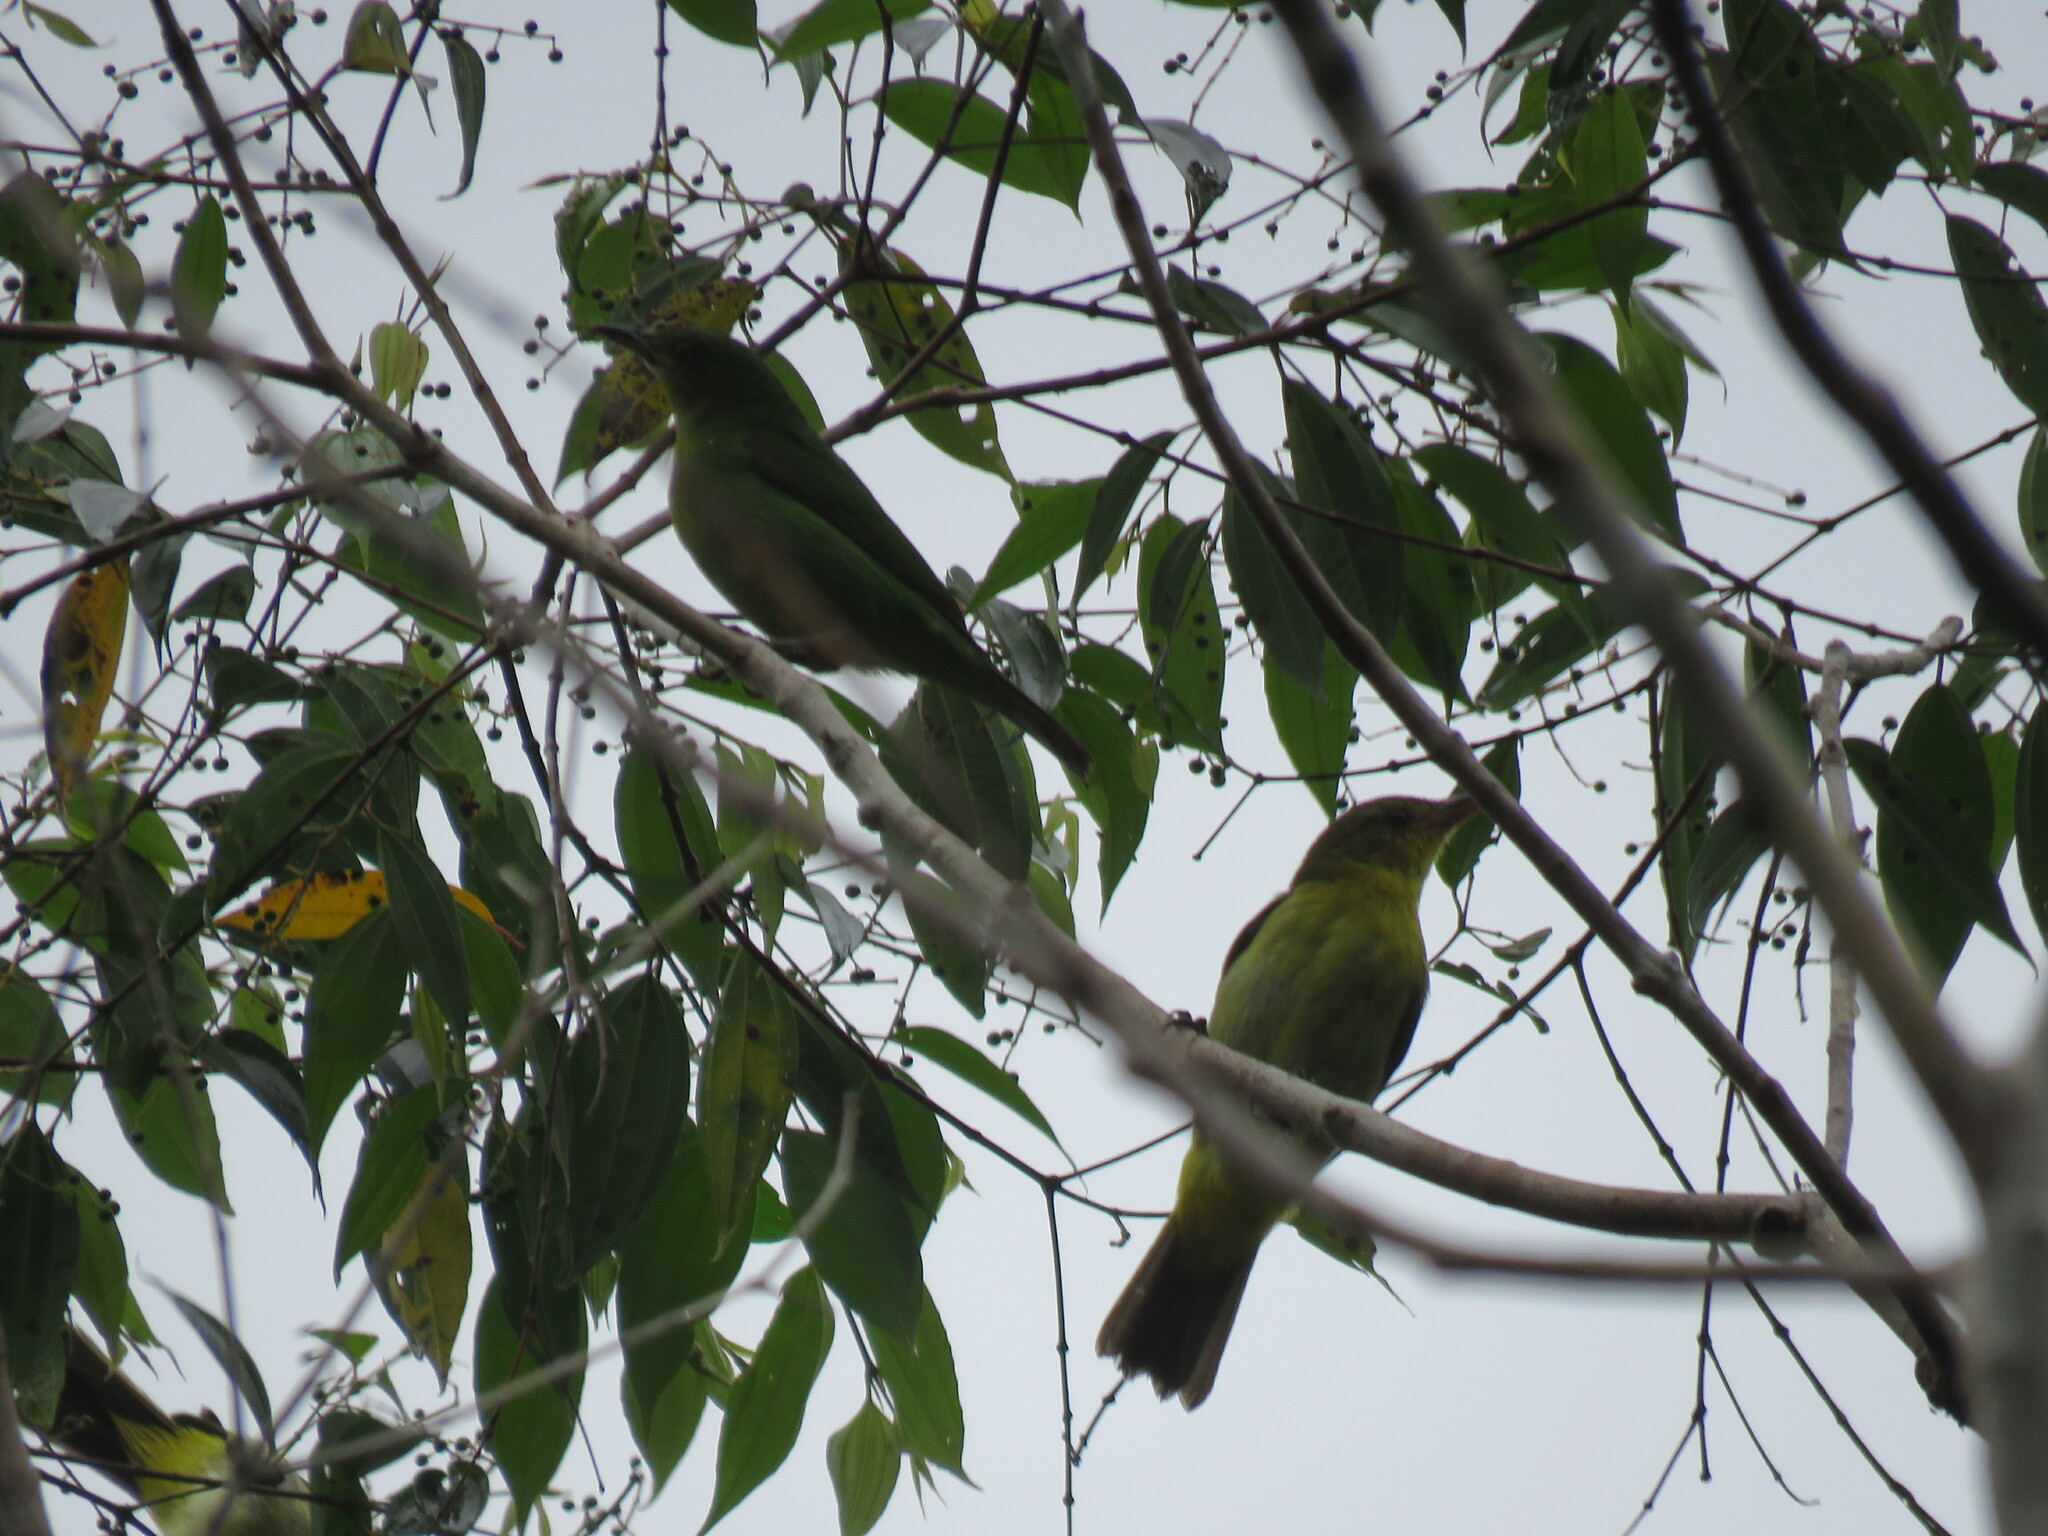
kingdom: Animalia
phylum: Chordata
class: Aves
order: Passeriformes
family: Thraupidae
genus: Chlorophanes
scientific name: Chlorophanes spiza
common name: Green honeycreeper
